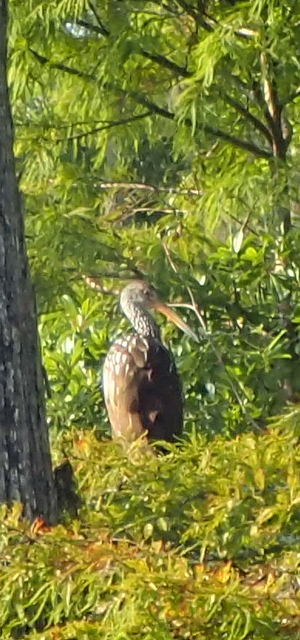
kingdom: Animalia
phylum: Chordata
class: Aves
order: Gruiformes
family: Aramidae
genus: Aramus
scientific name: Aramus guarauna
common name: Limpkin
